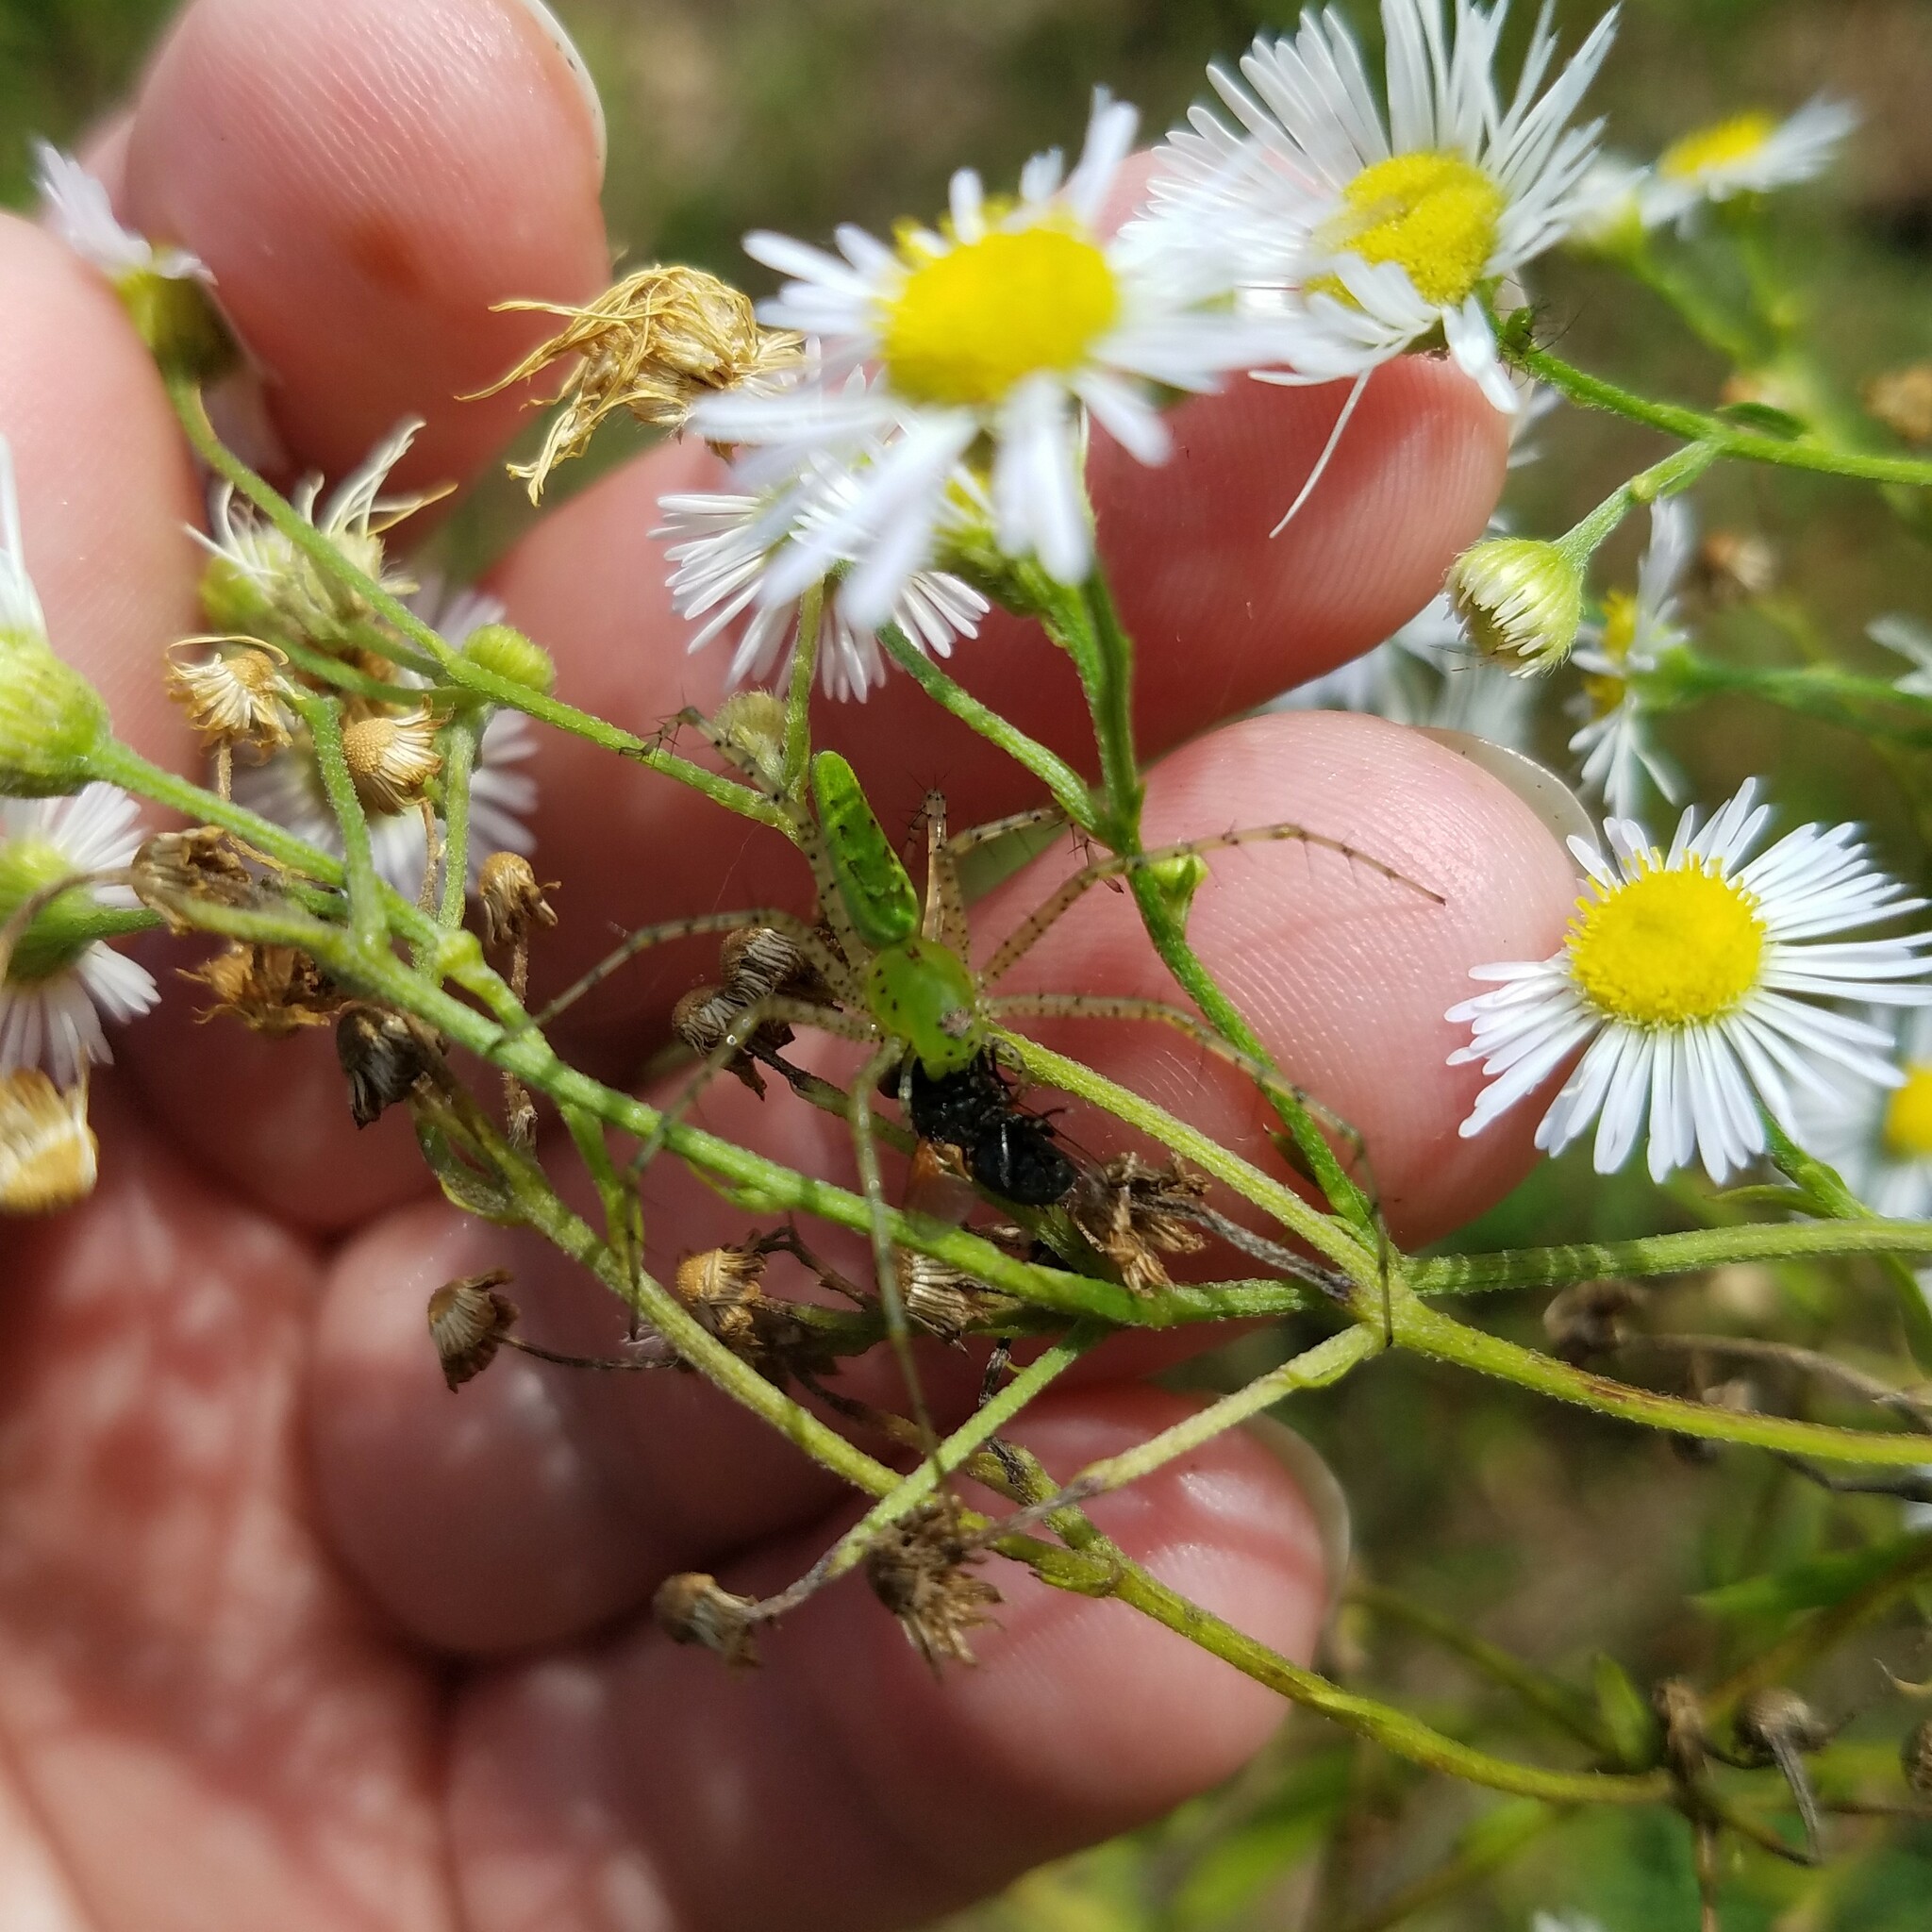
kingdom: Animalia
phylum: Arthropoda
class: Arachnida
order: Araneae
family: Oxyopidae
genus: Peucetia
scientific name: Peucetia viridans
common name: Lynx spiders
